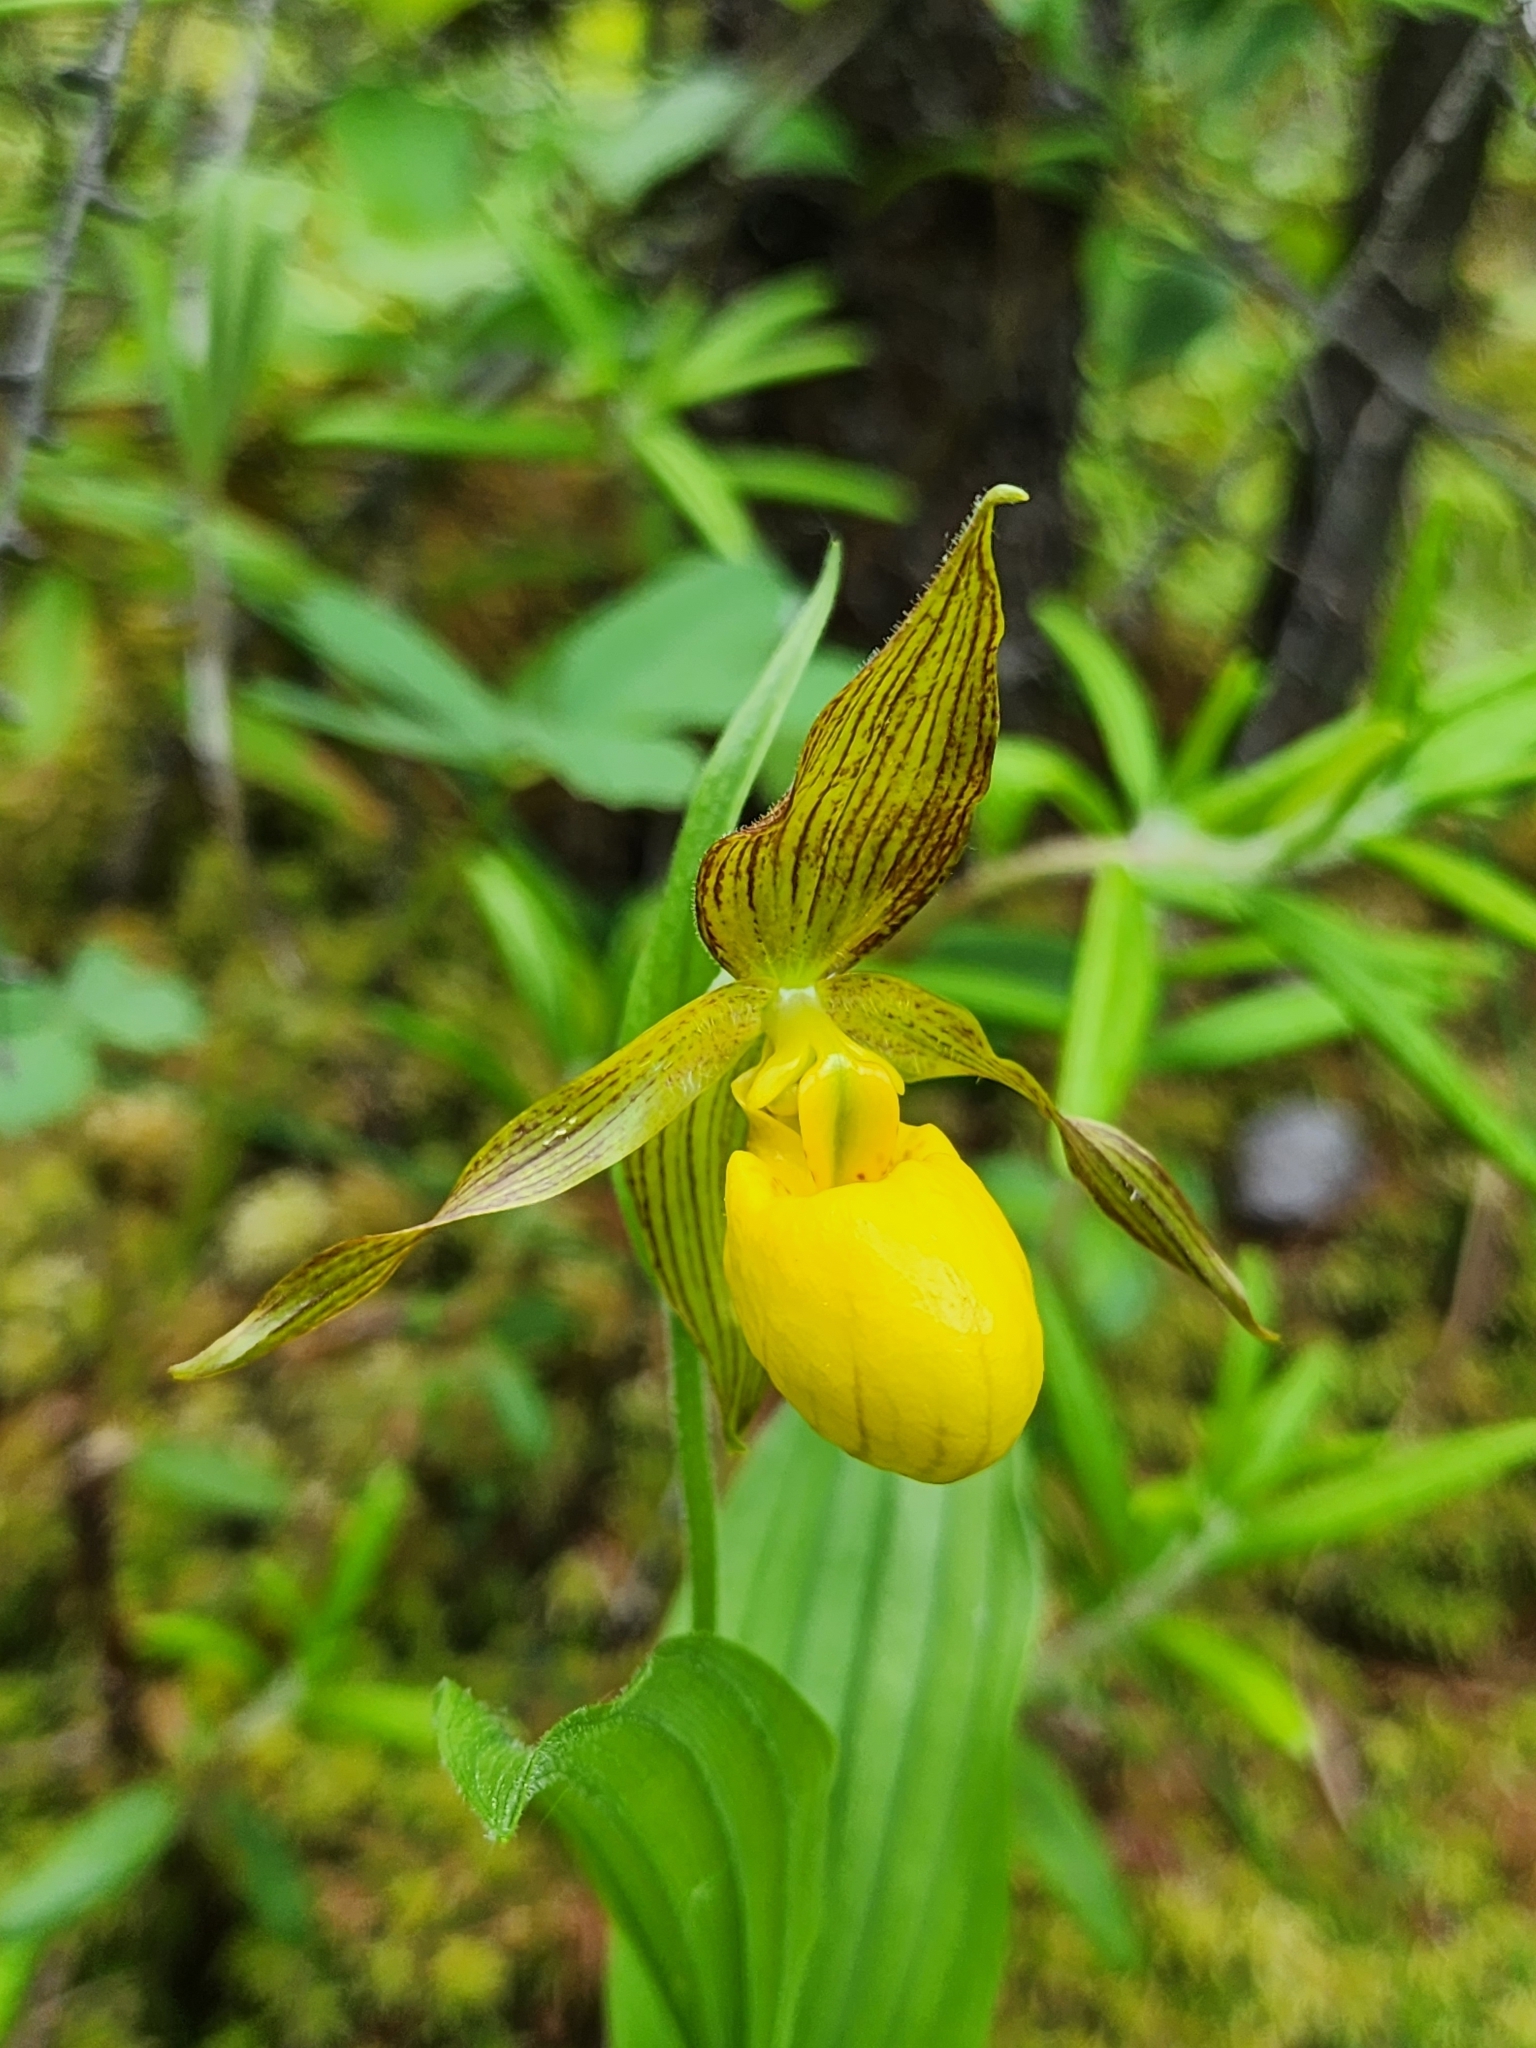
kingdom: Plantae
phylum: Tracheophyta
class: Liliopsida
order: Asparagales
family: Orchidaceae
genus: Cypripedium
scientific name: Cypripedium parviflorum
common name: American yellow lady's-slipper
